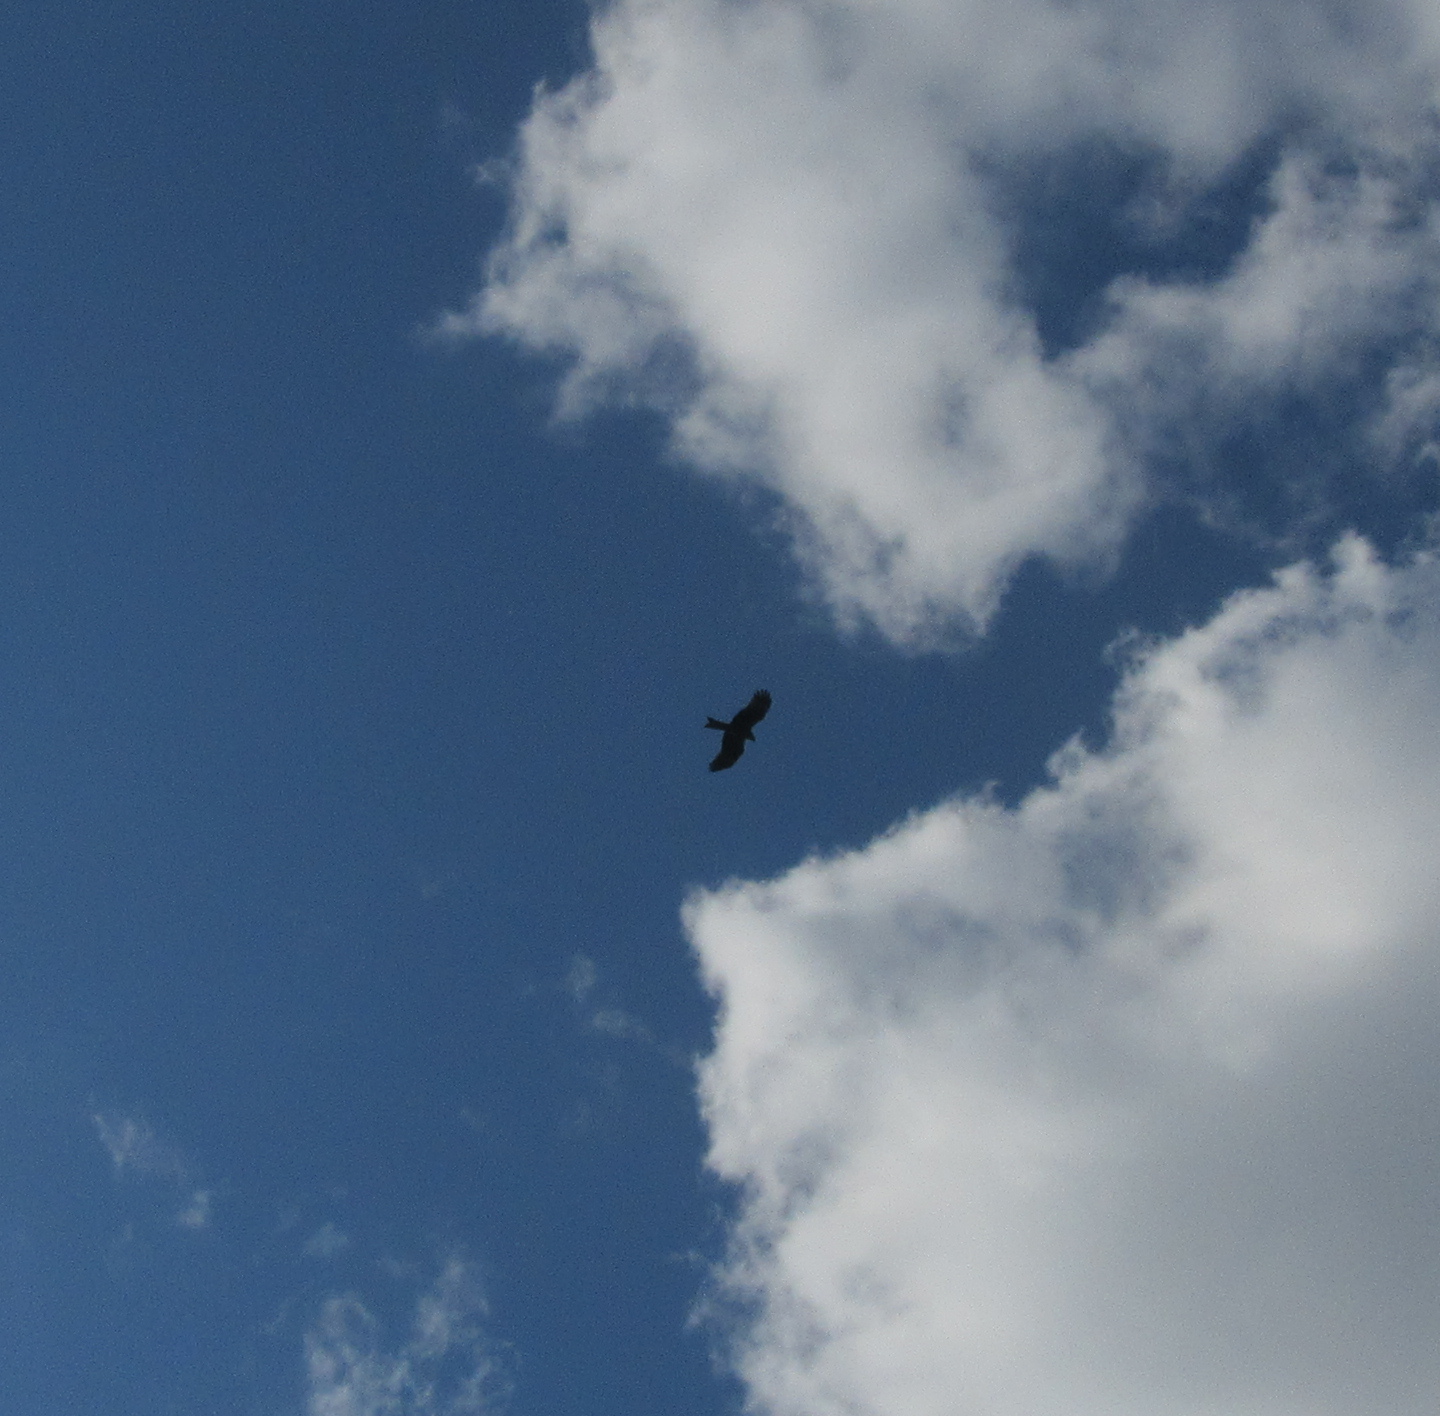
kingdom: Animalia
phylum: Chordata
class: Aves
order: Accipitriformes
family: Accipitridae
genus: Milvus
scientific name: Milvus migrans
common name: Black kite
